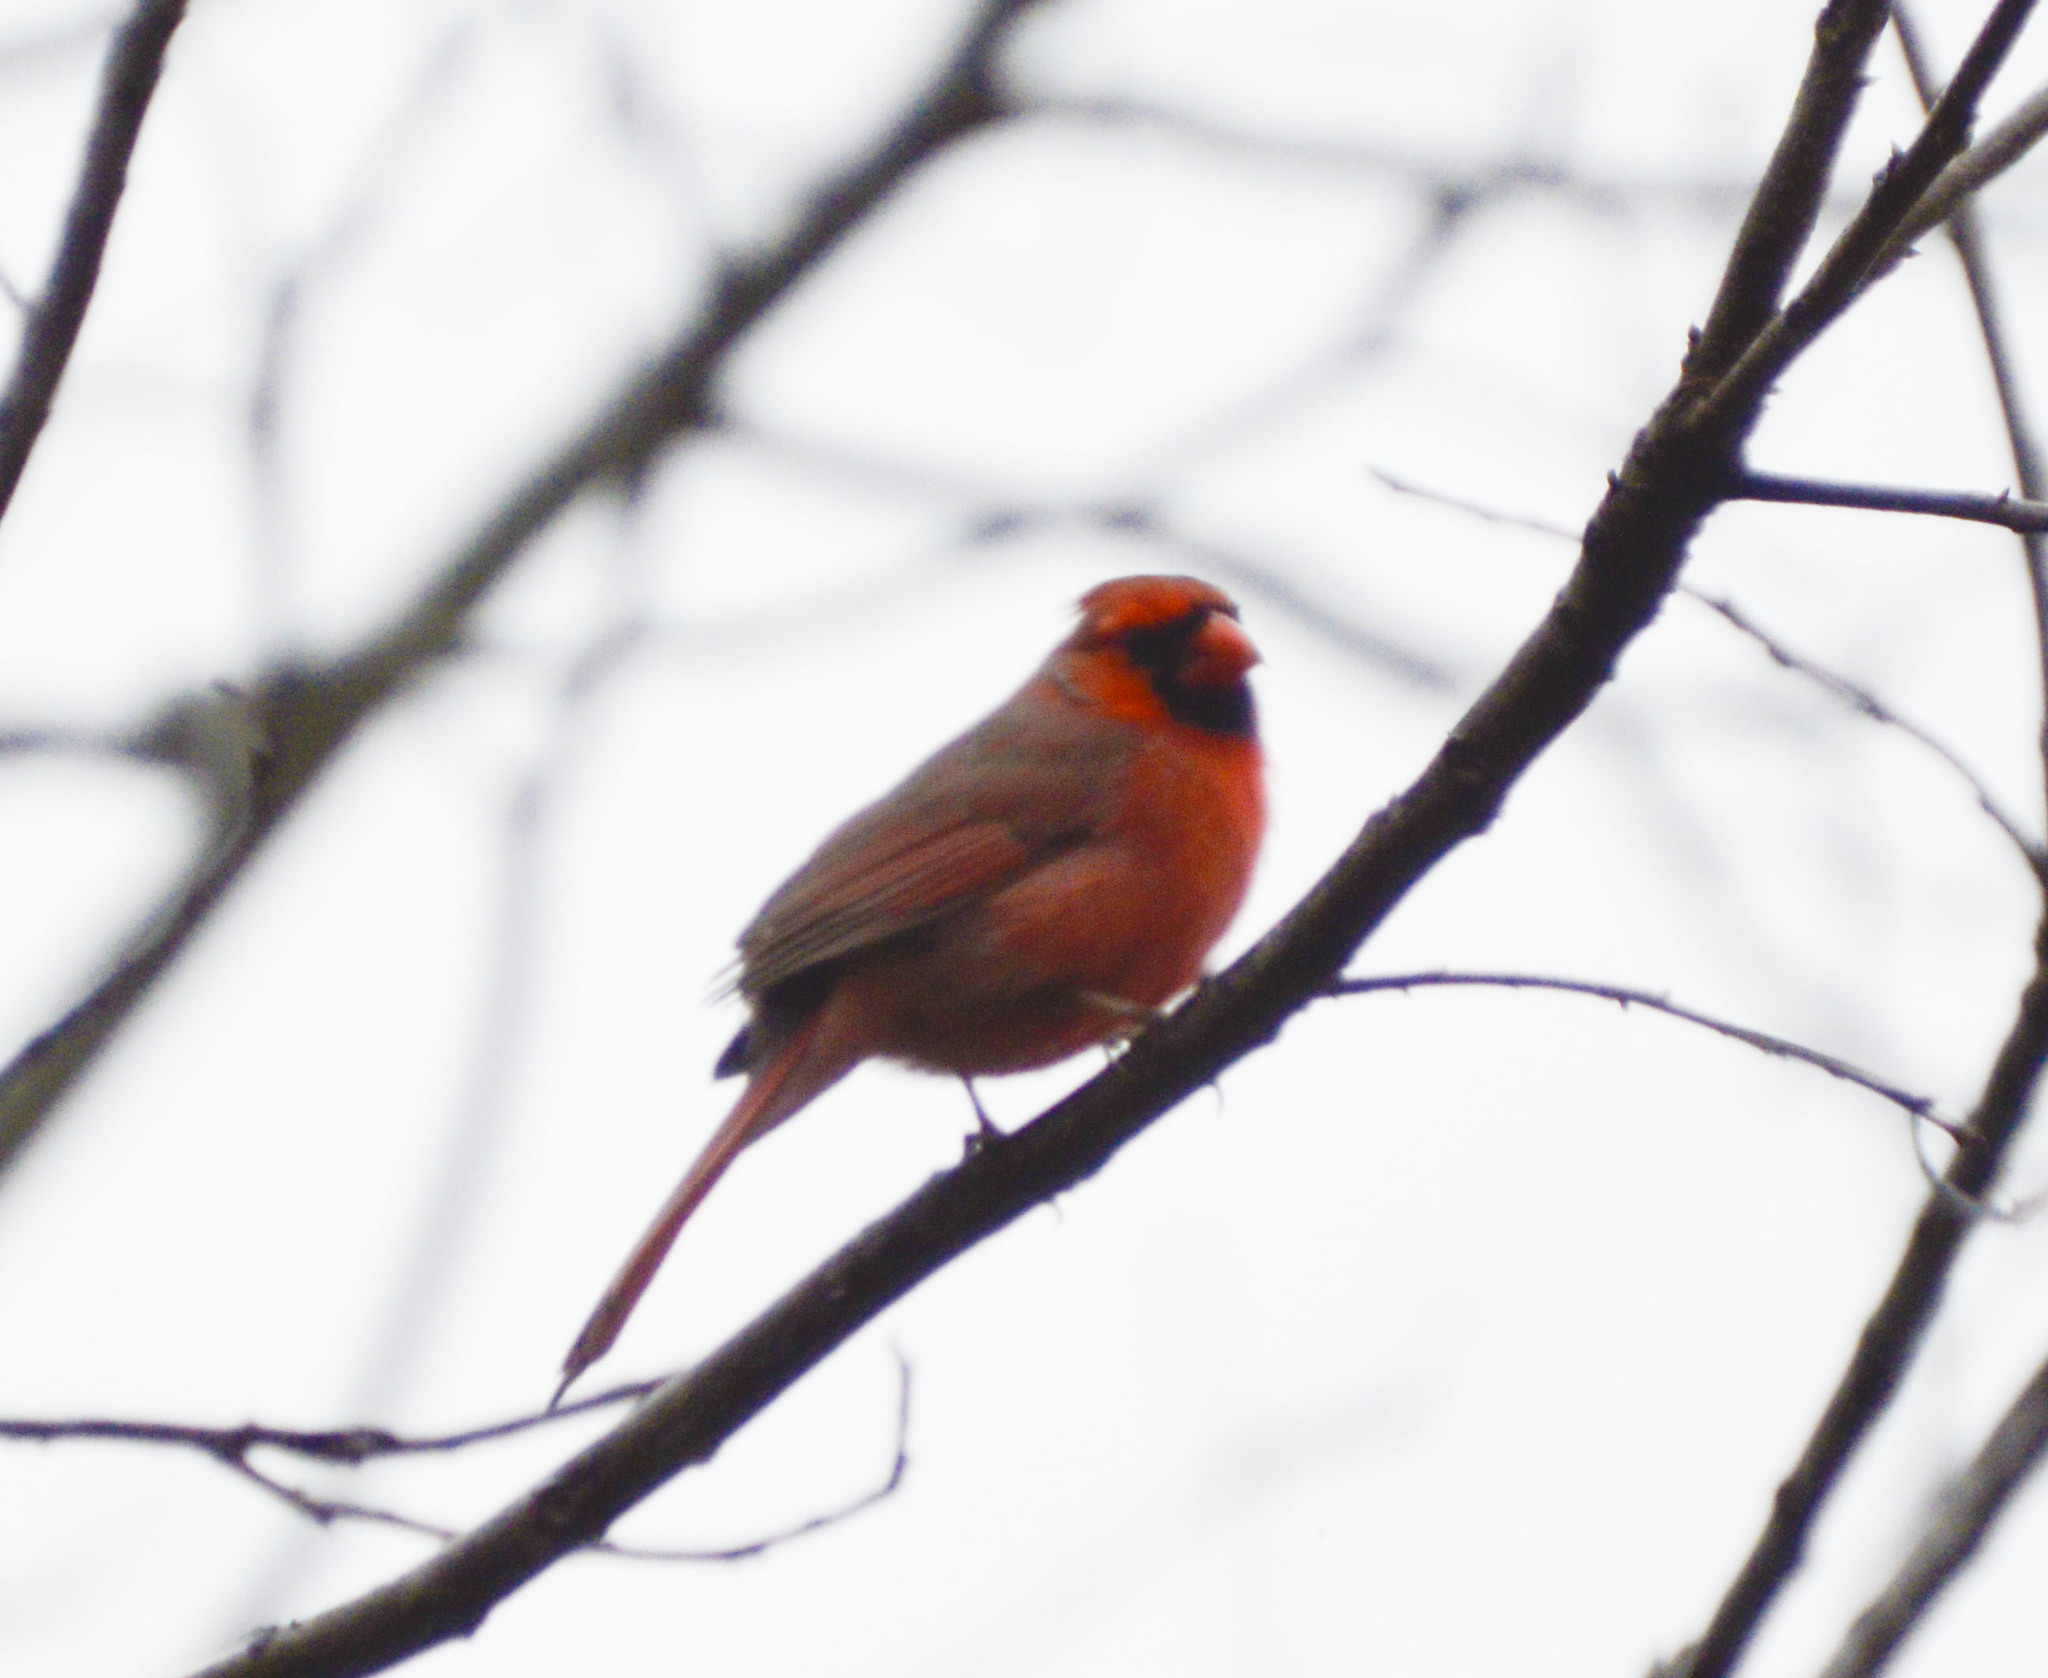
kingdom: Animalia
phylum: Chordata
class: Aves
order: Passeriformes
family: Cardinalidae
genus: Cardinalis
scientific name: Cardinalis cardinalis
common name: Northern cardinal
